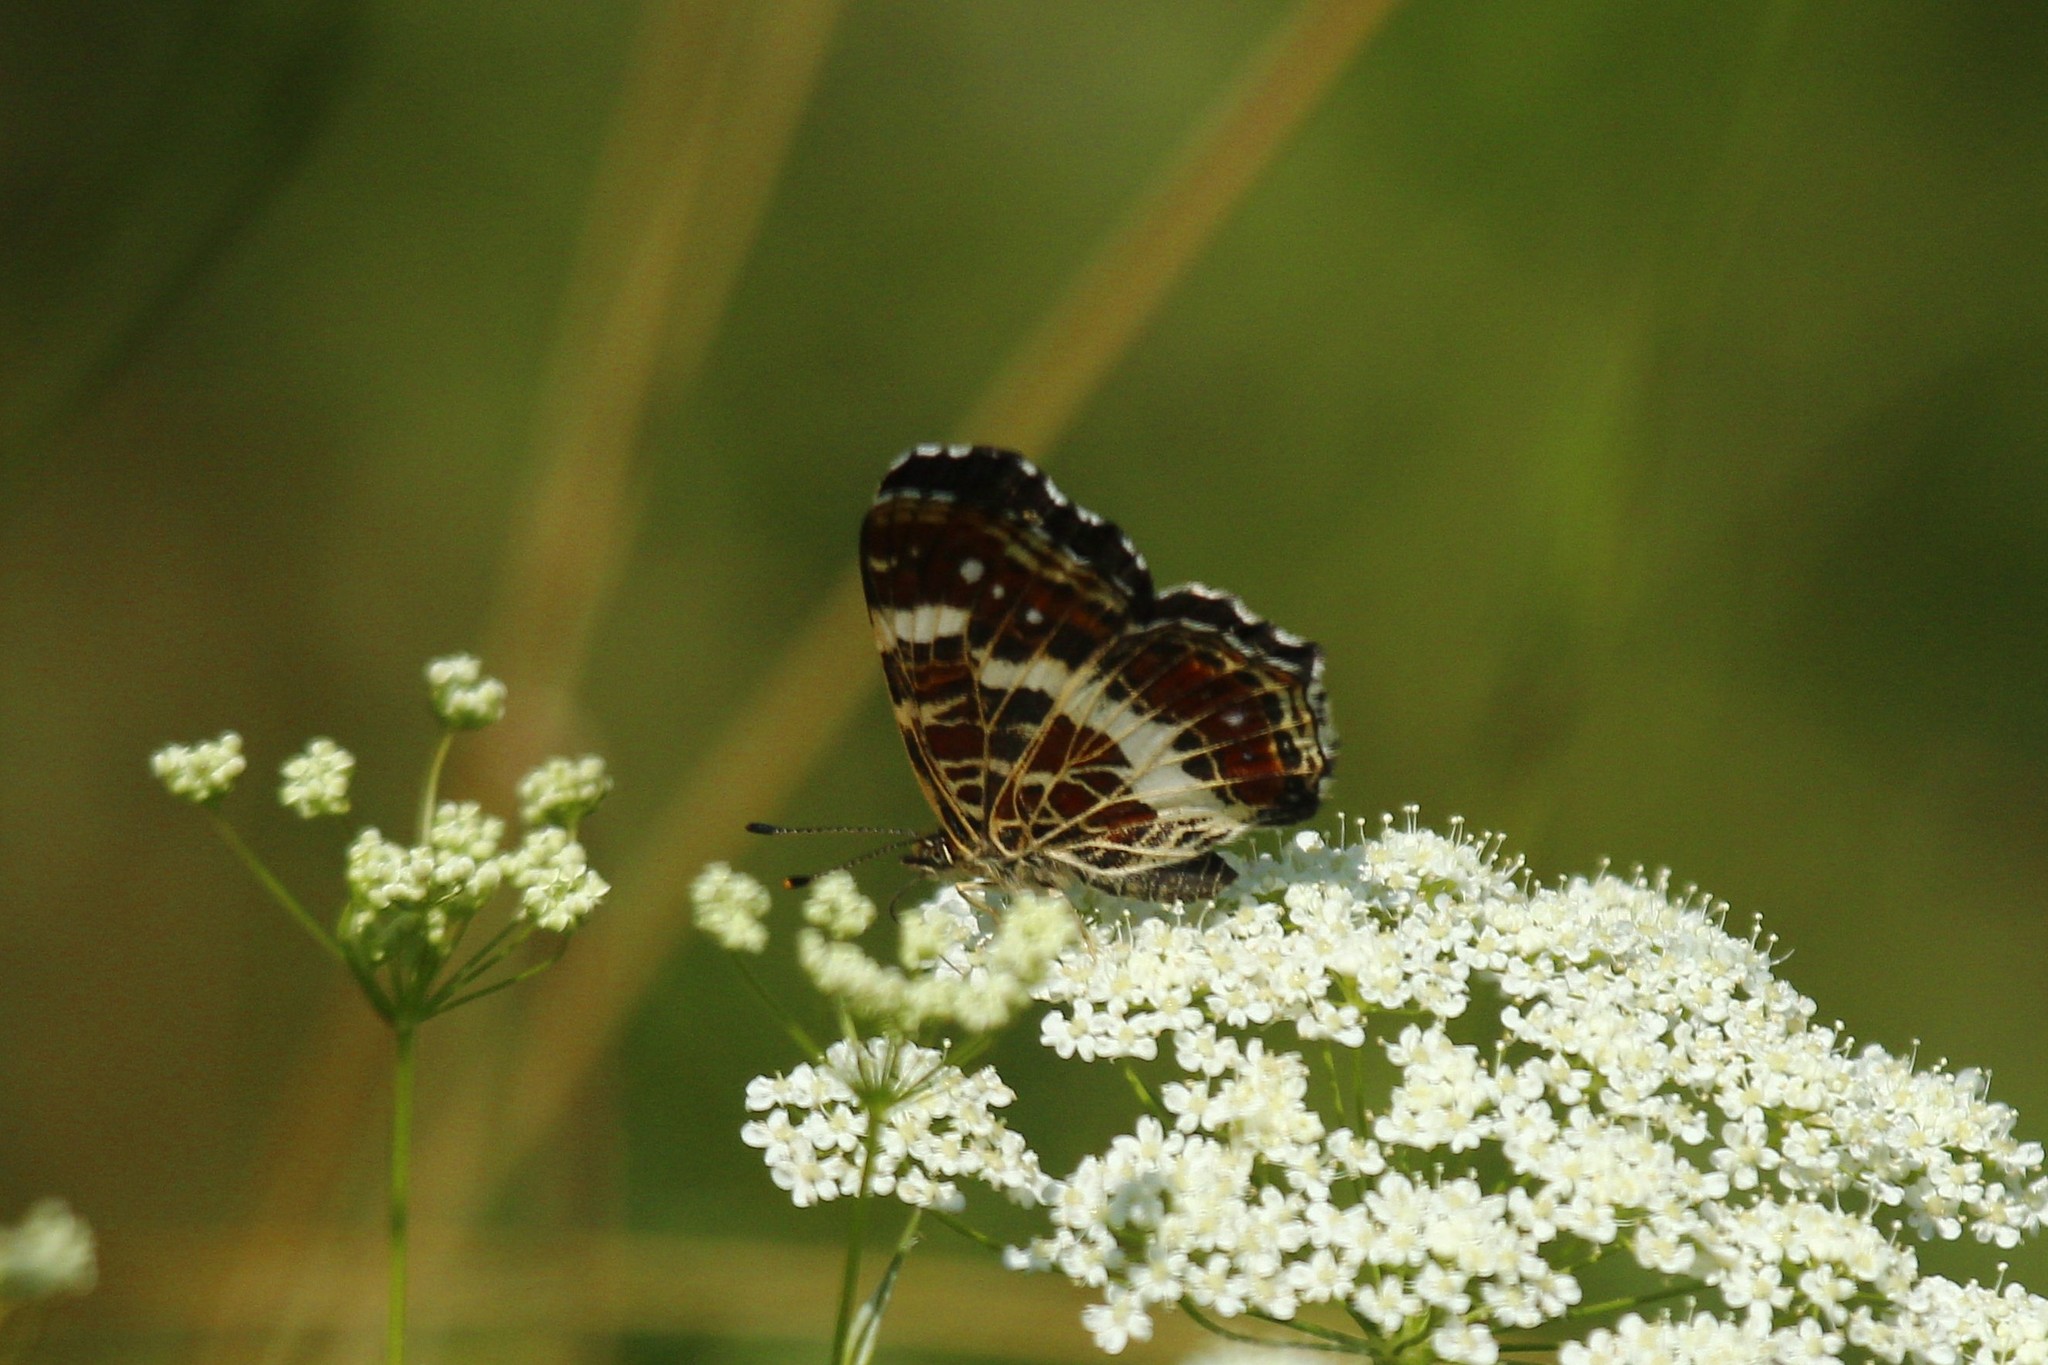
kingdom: Animalia
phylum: Arthropoda
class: Insecta
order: Lepidoptera
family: Nymphalidae
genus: Araschnia
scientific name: Araschnia levana
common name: Map butterfly
